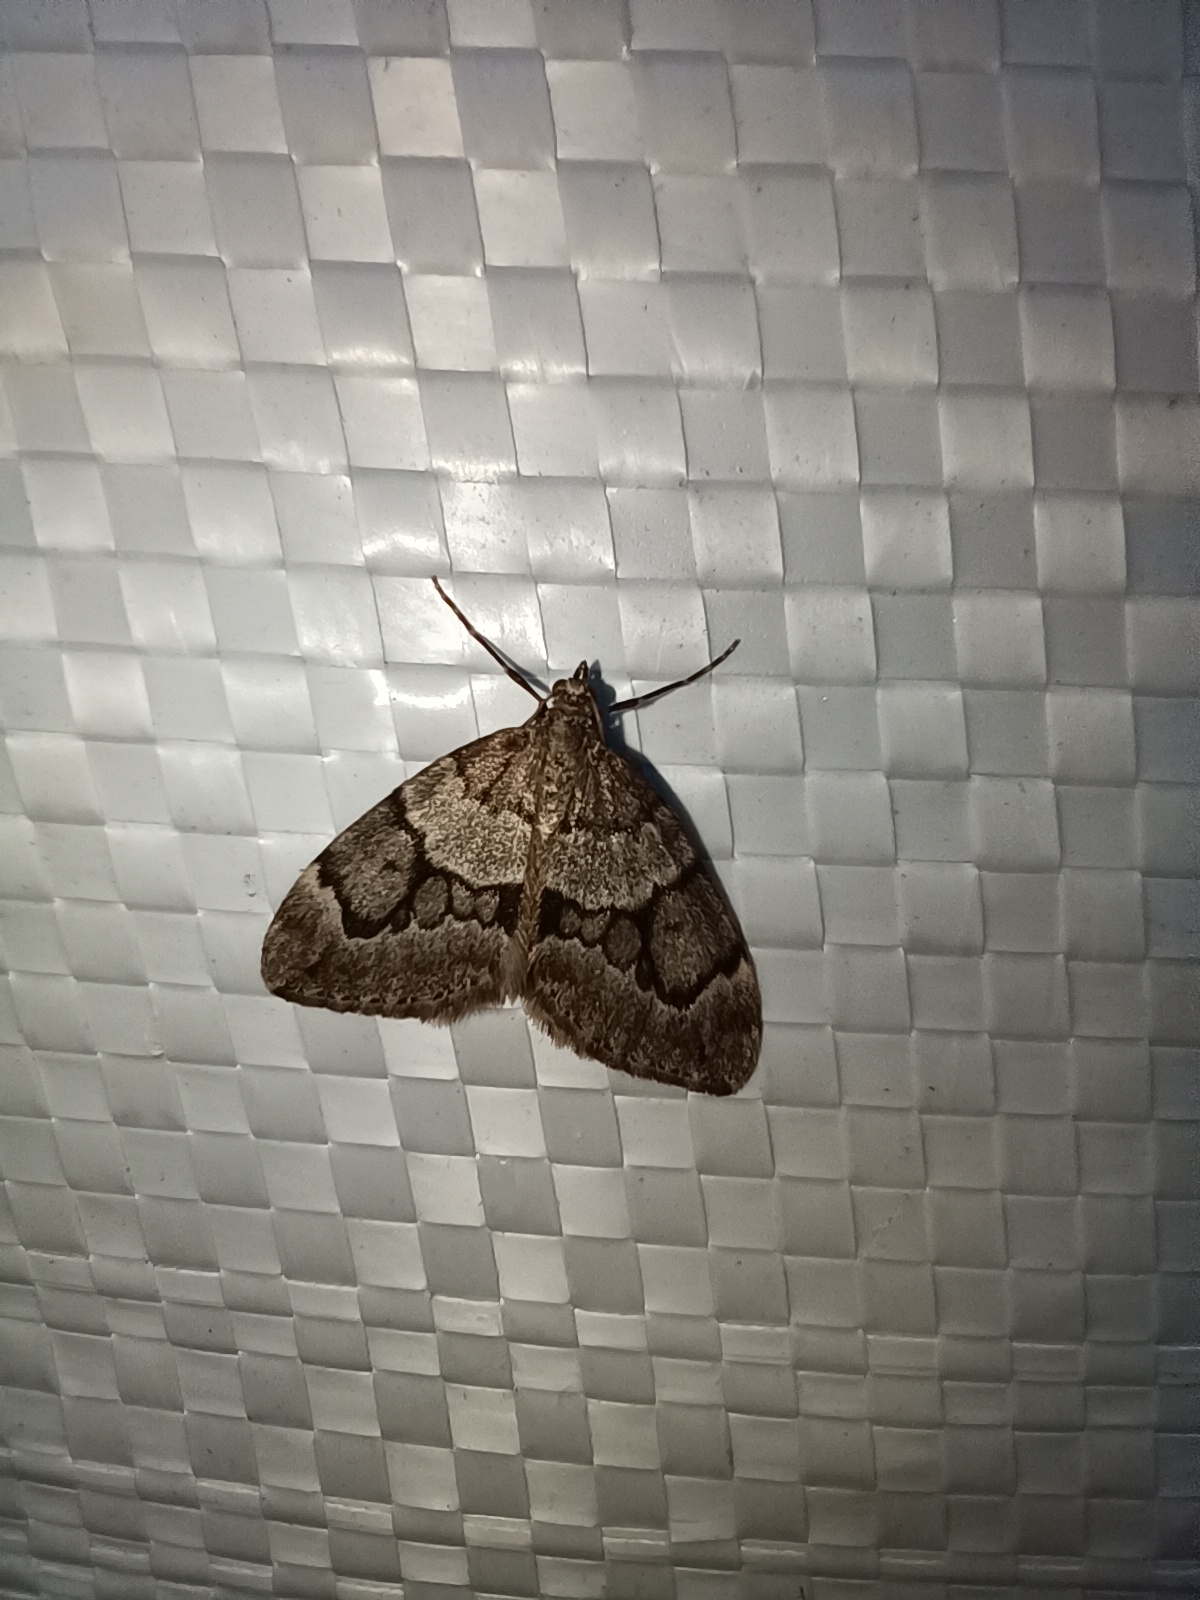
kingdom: Animalia
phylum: Arthropoda
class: Insecta
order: Lepidoptera
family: Geometridae
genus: Thera
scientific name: Thera juniperata
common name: Juniper carpet
